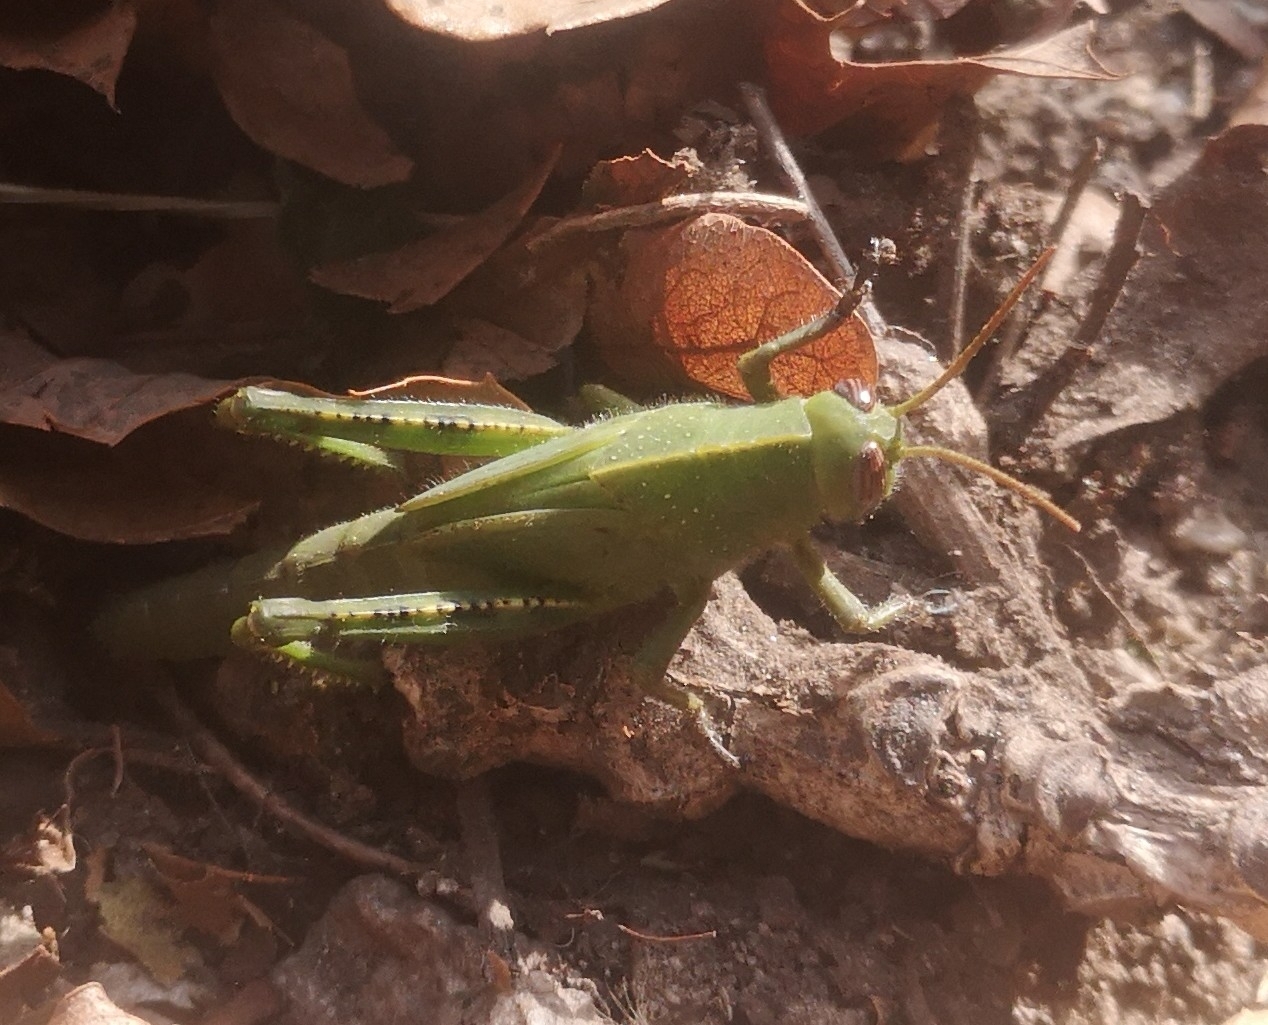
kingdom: Animalia
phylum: Arthropoda
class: Insecta
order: Orthoptera
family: Acrididae
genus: Anacridium
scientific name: Anacridium aegyptium
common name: Egyptian grasshopper
